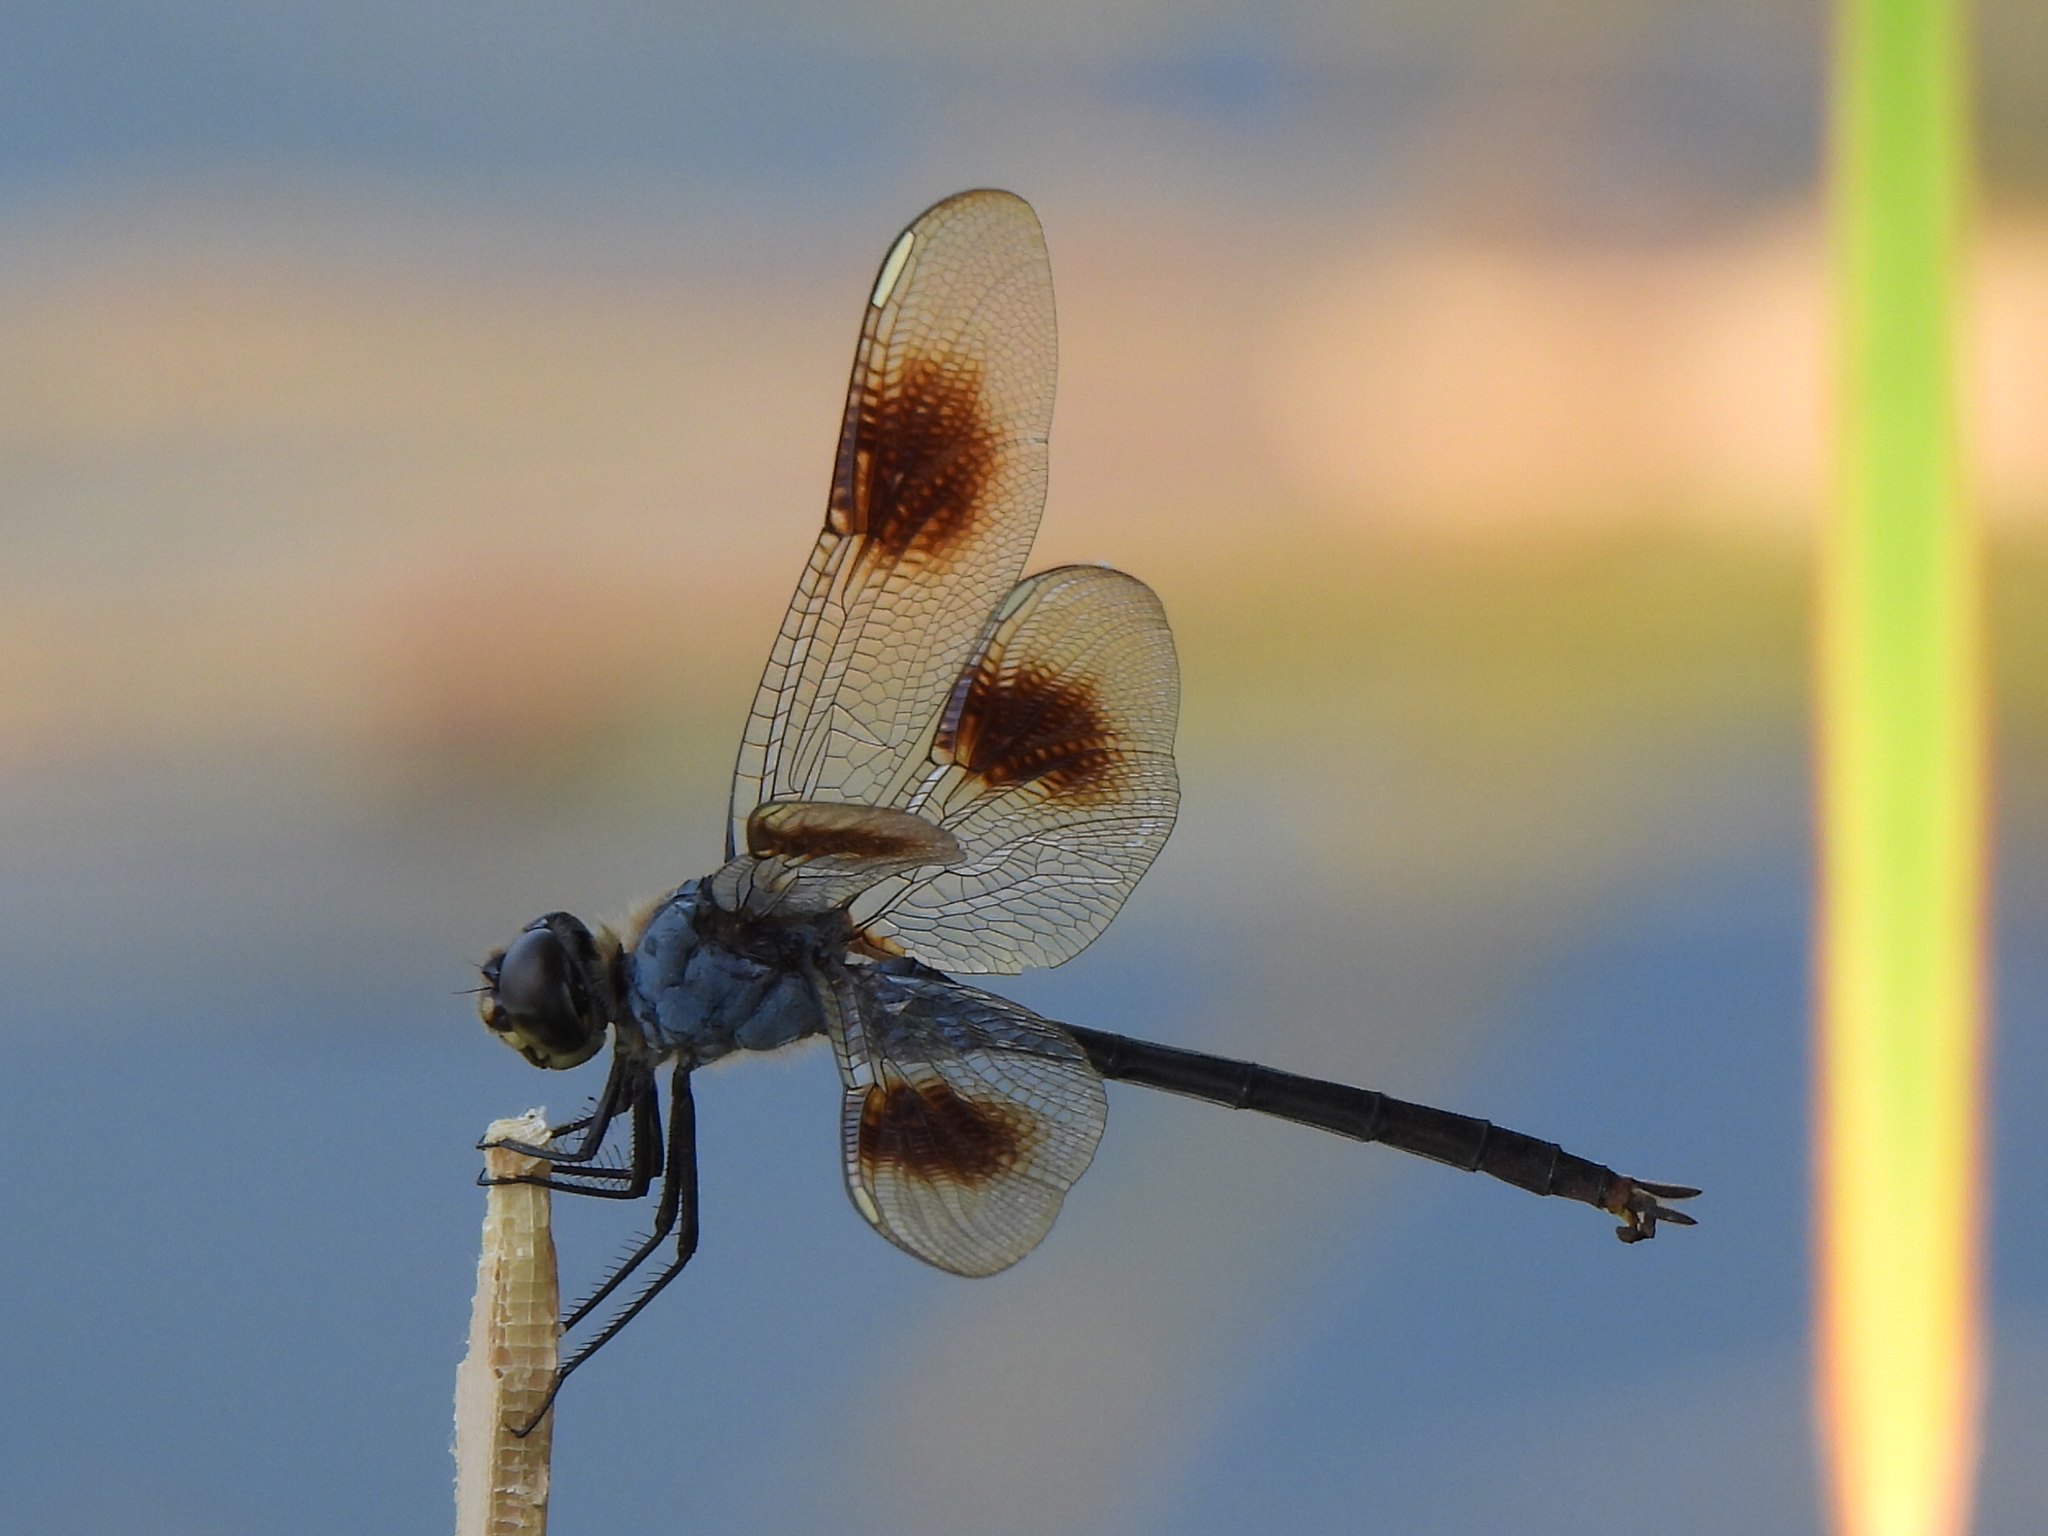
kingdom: Animalia
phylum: Arthropoda
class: Insecta
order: Odonata
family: Libellulidae
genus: Brachymesia
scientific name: Brachymesia gravida
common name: Four-spotted pennant
